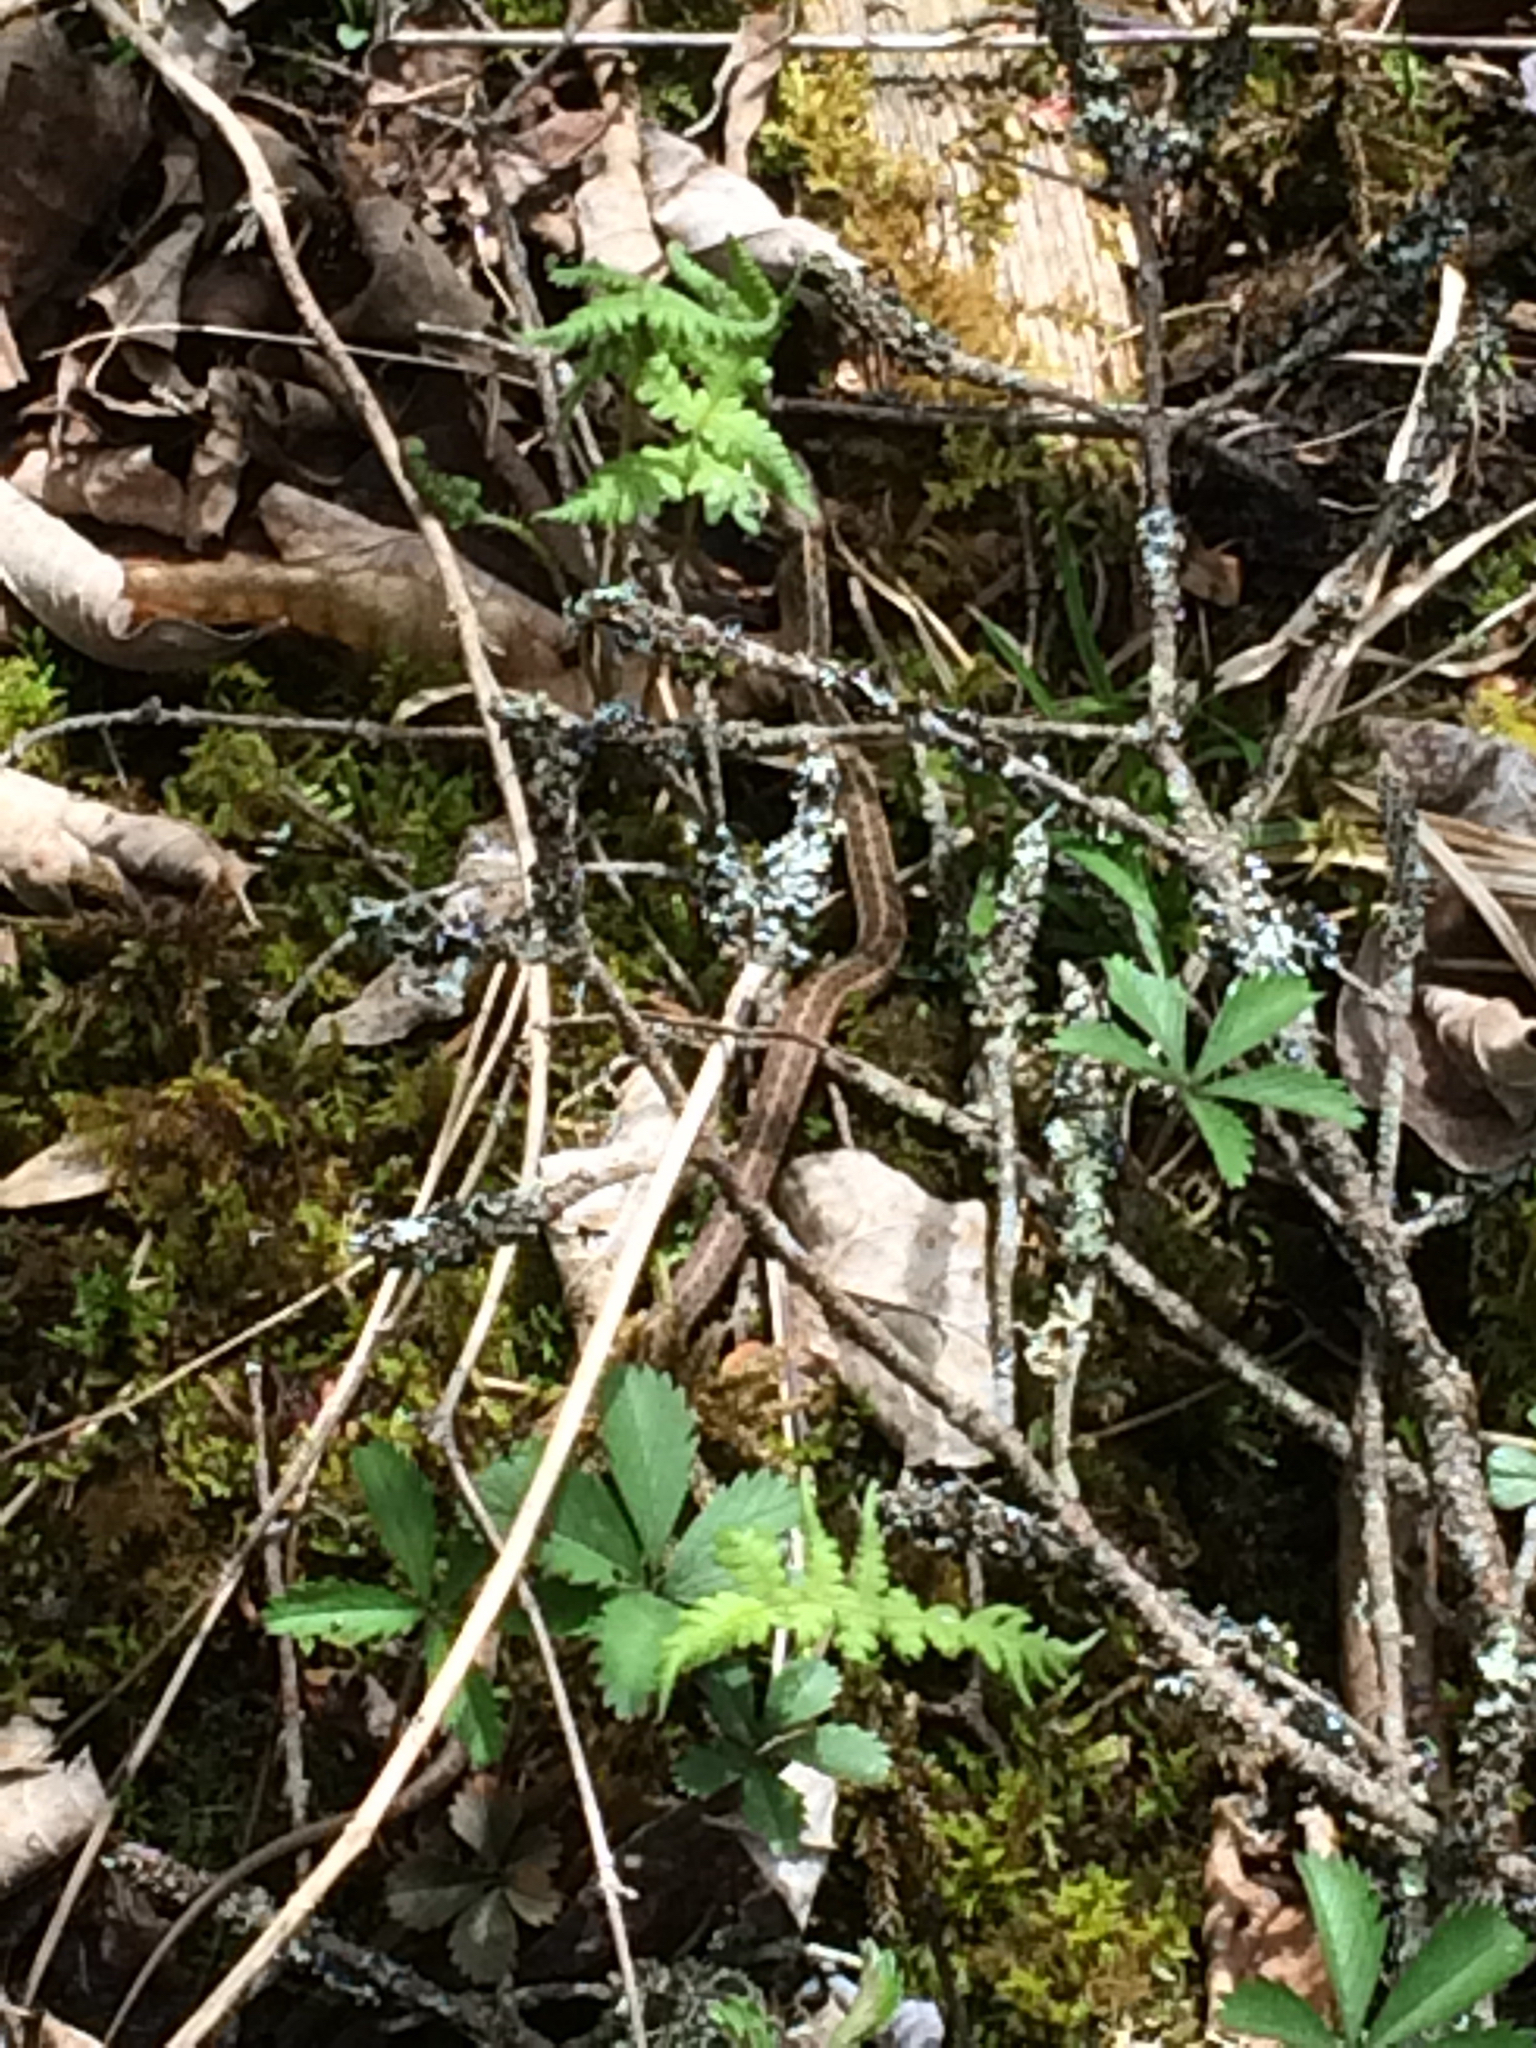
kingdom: Animalia
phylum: Chordata
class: Squamata
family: Colubridae
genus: Thamnophis
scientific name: Thamnophis sirtalis
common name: Common garter snake
